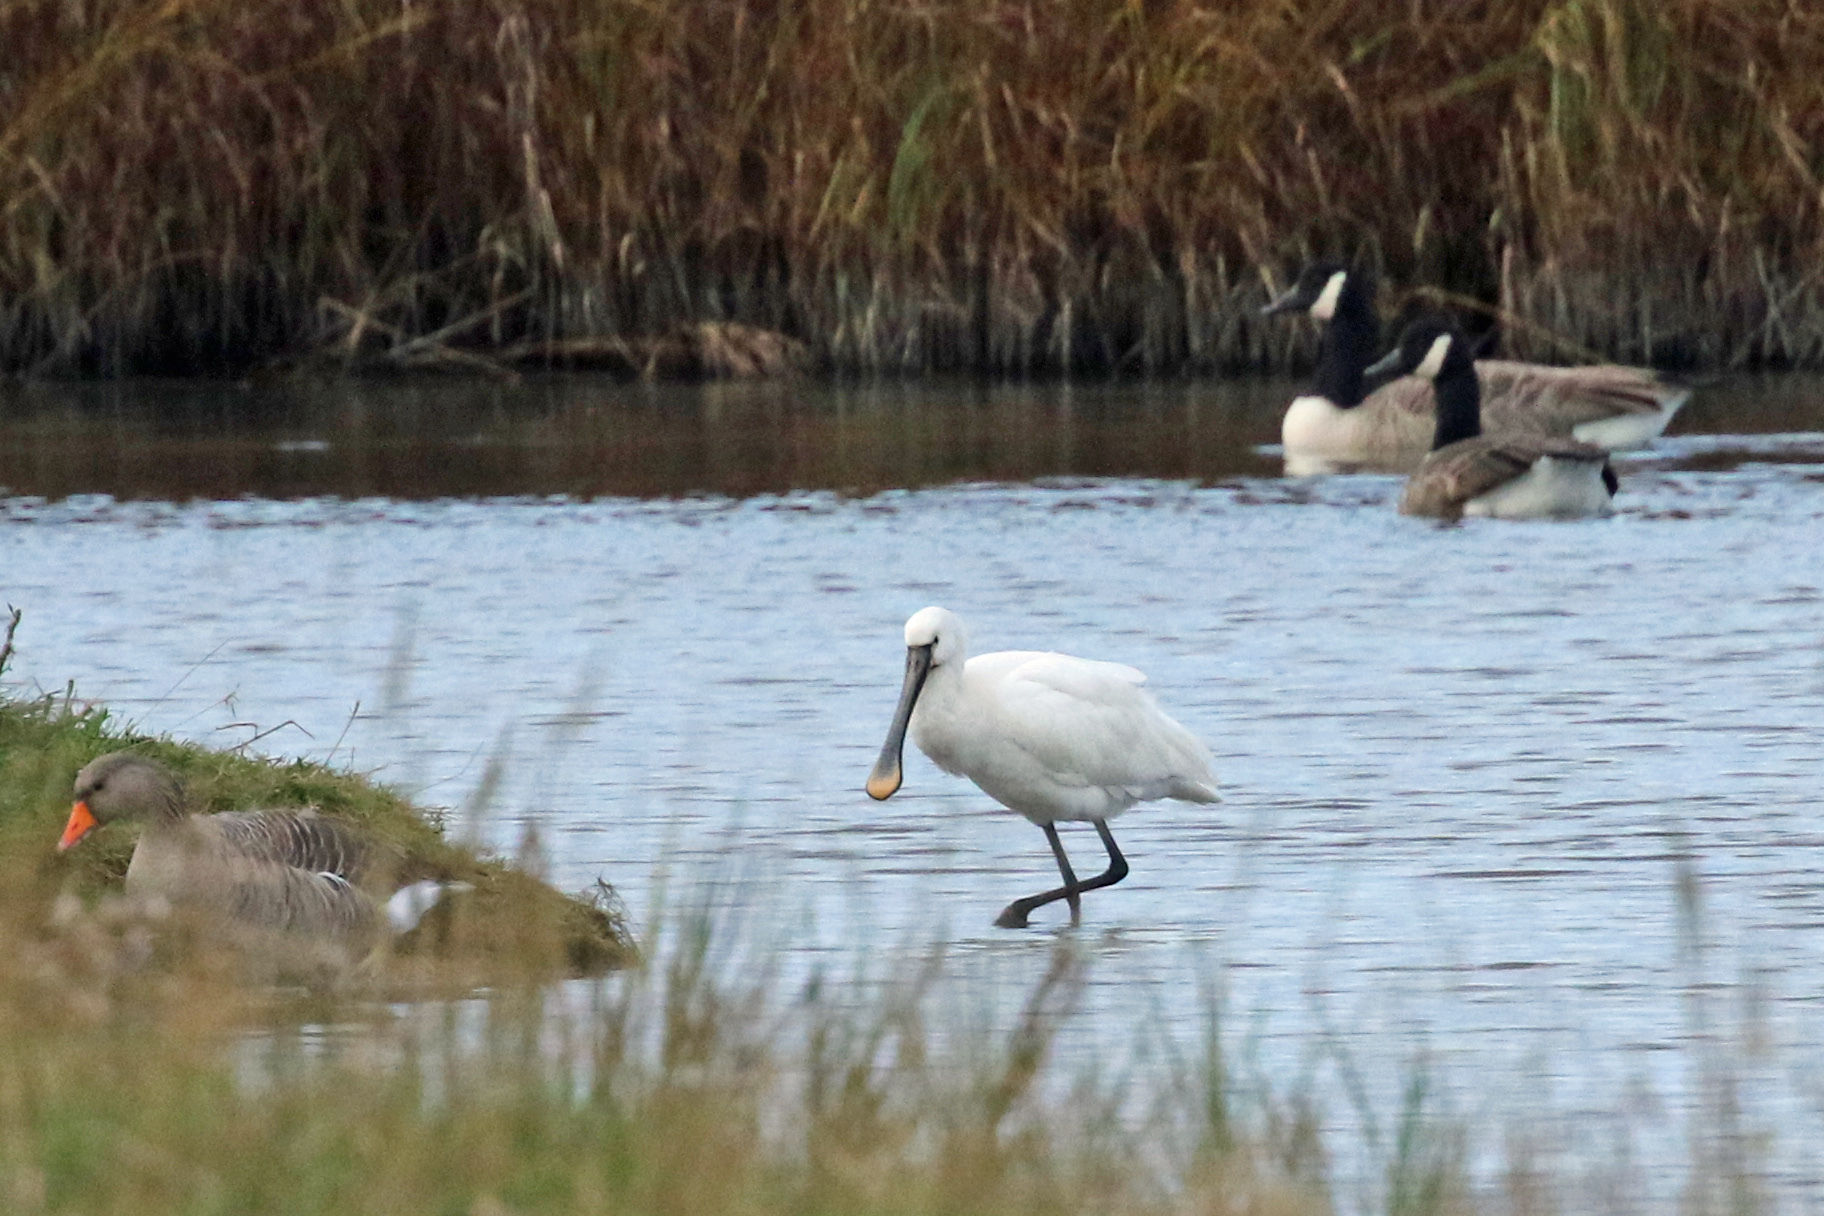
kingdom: Animalia
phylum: Chordata
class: Aves
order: Pelecaniformes
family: Threskiornithidae
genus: Platalea
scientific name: Platalea leucorodia
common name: Eurasian spoonbill
